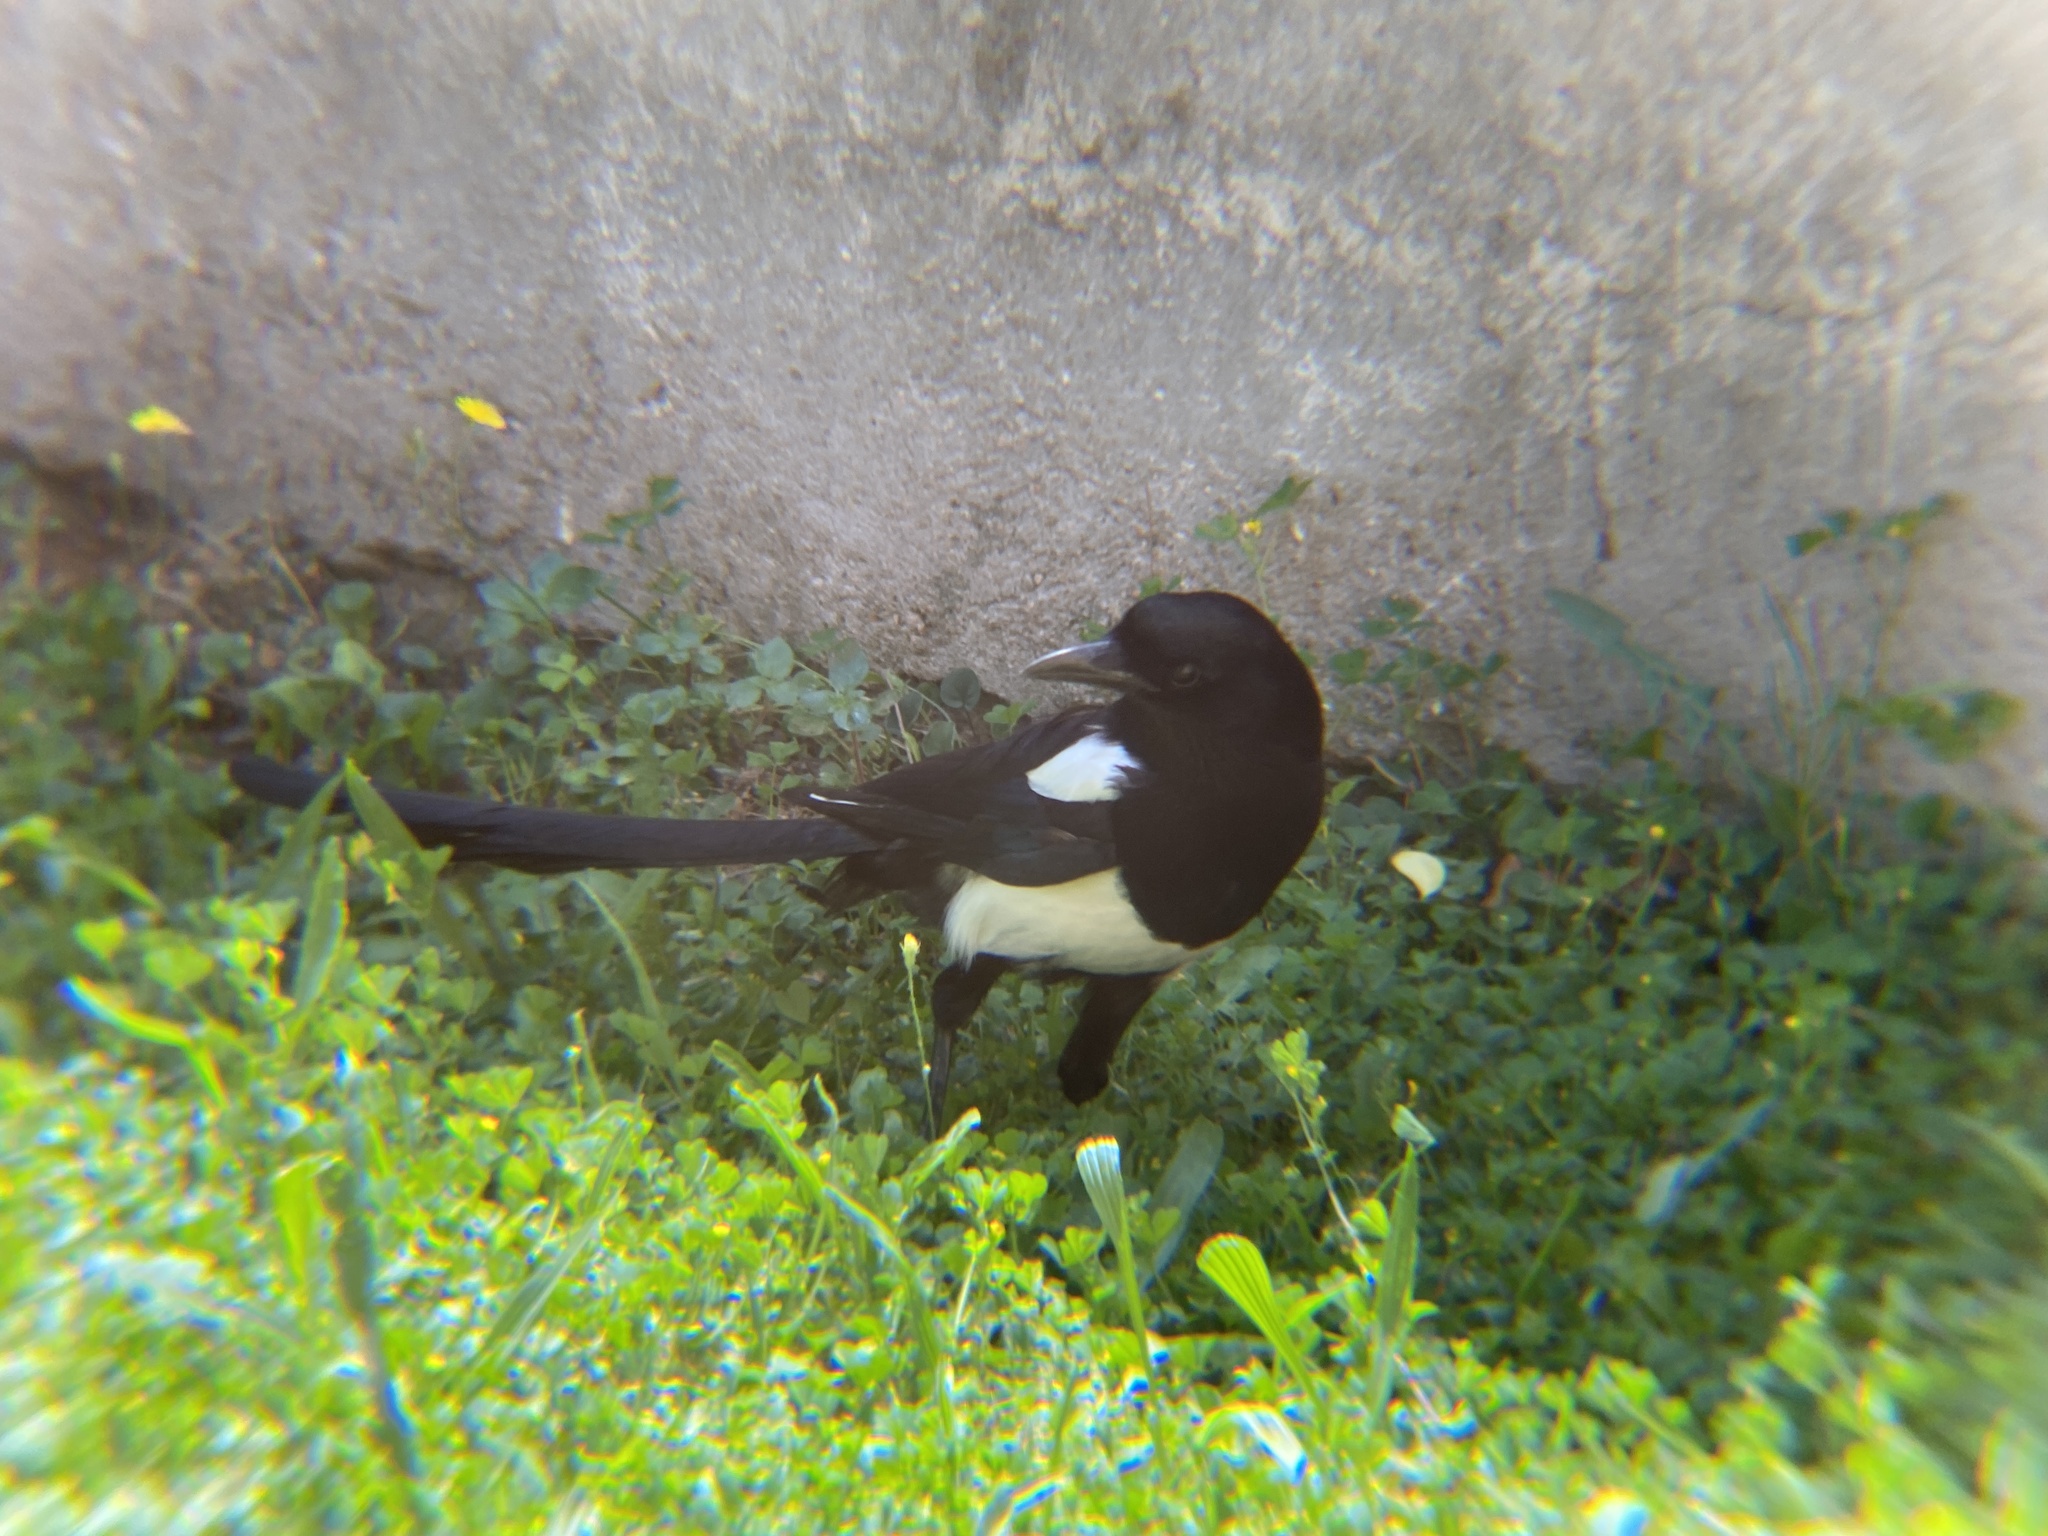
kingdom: Animalia
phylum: Chordata
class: Aves
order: Passeriformes
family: Corvidae
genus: Pica
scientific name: Pica pica
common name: Eurasian magpie
